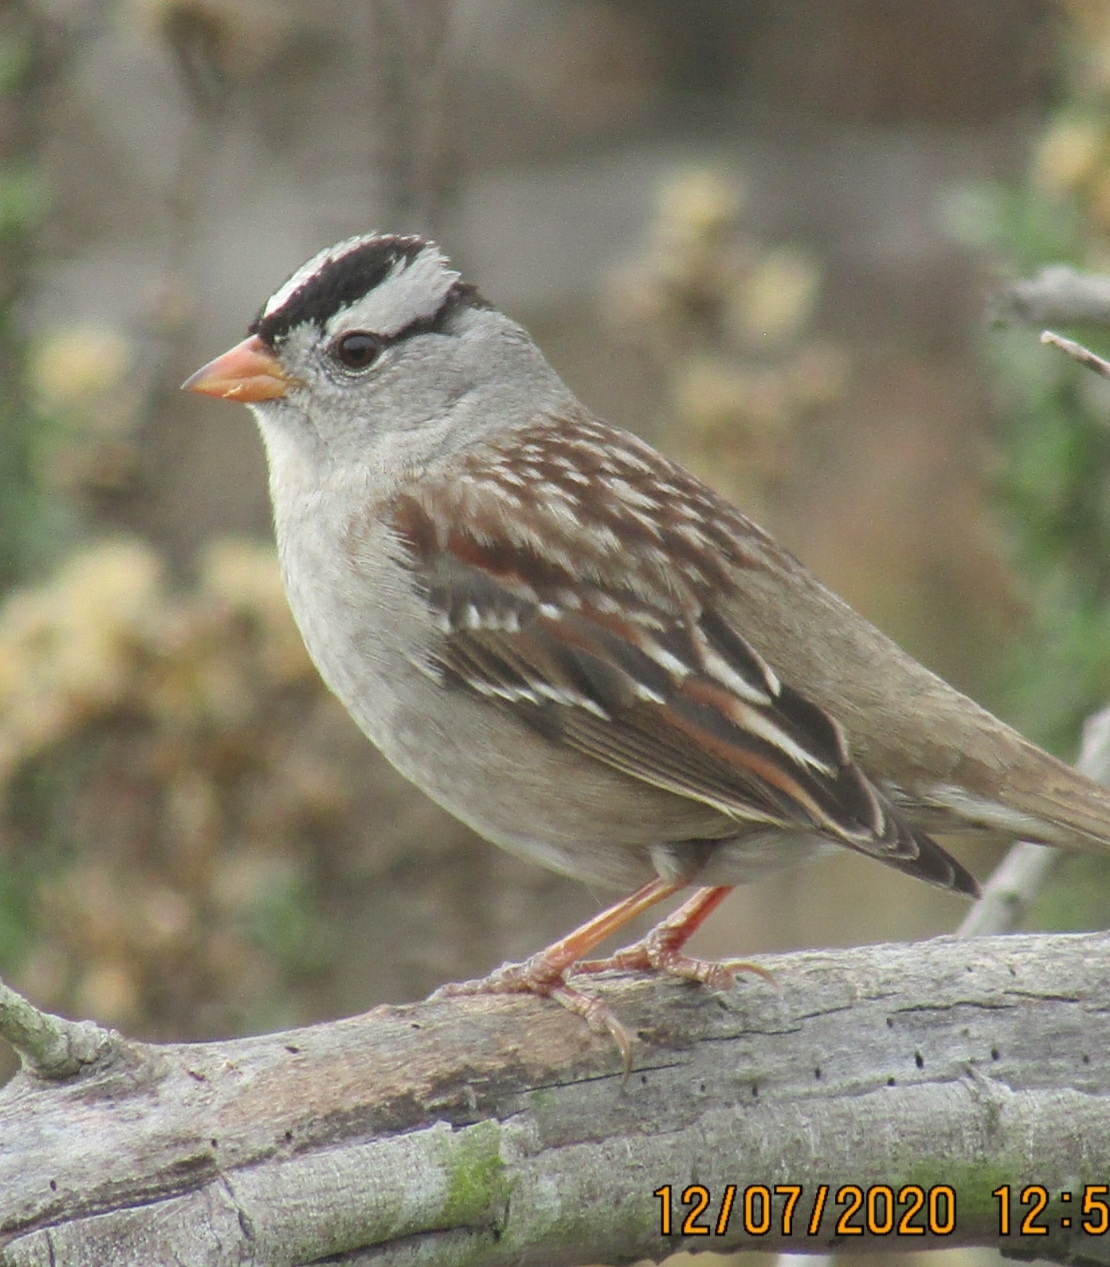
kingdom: Animalia
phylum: Chordata
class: Aves
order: Passeriformes
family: Passerellidae
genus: Zonotrichia
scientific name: Zonotrichia leucophrys
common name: White-crowned sparrow
